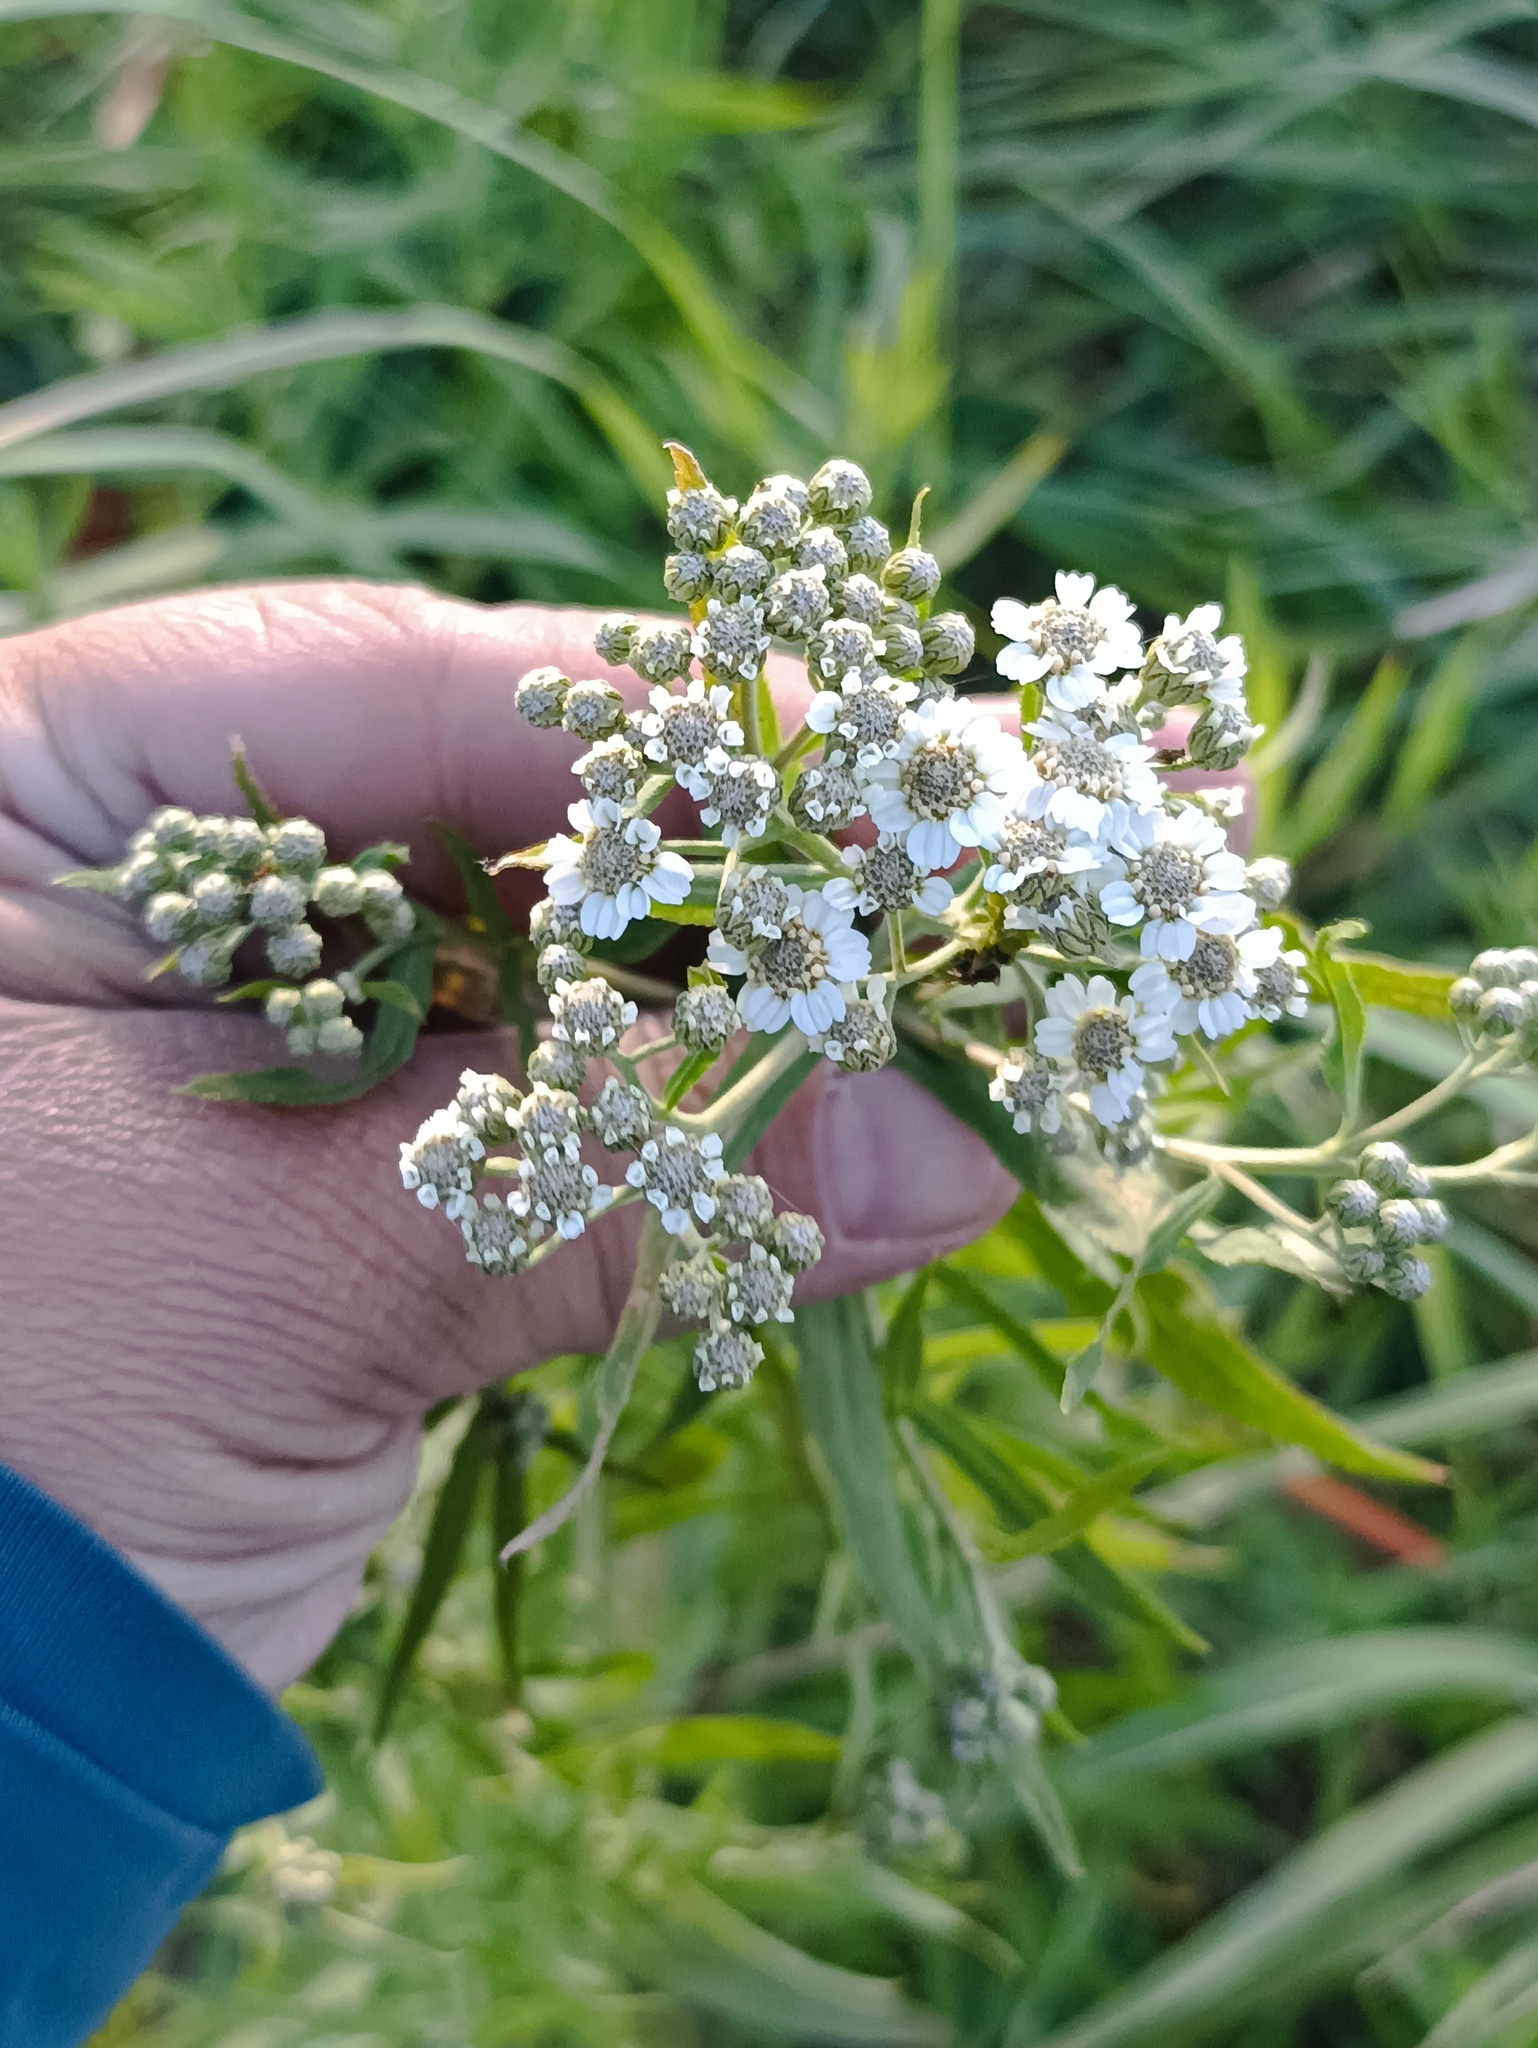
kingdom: Plantae
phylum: Tracheophyta
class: Magnoliopsida
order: Asterales
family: Asteraceae
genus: Achillea
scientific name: Achillea salicifolia
